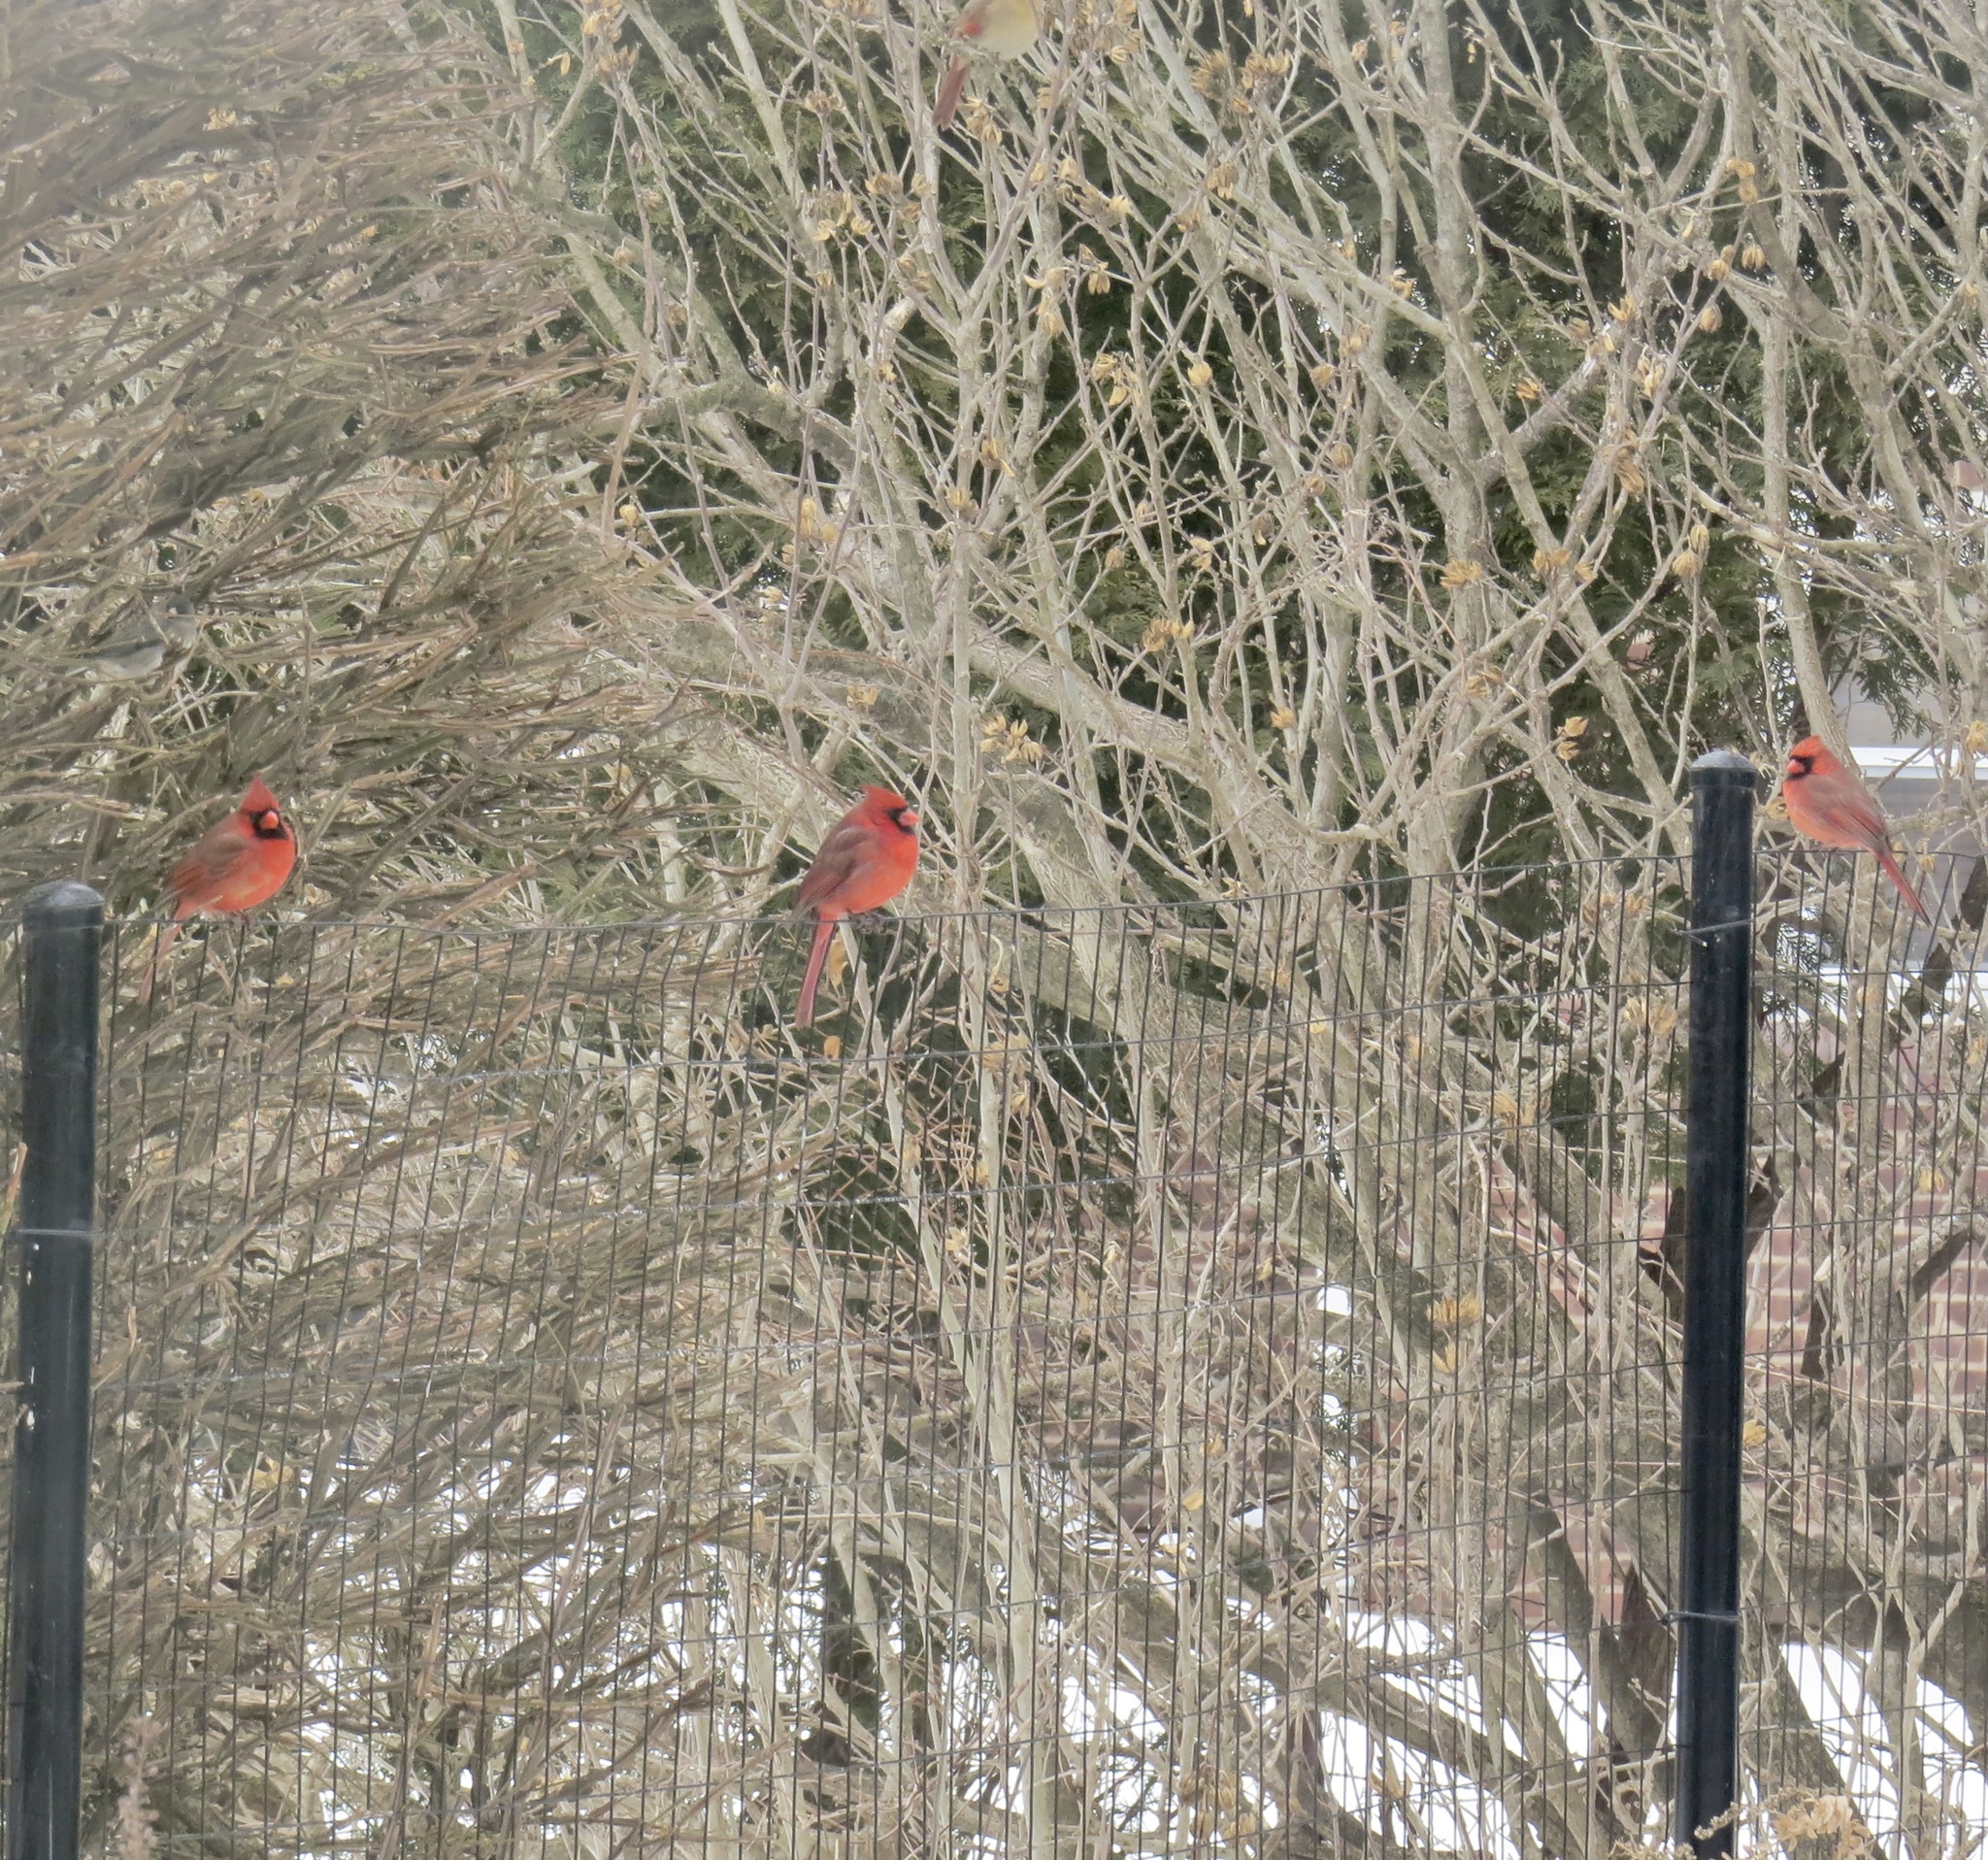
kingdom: Animalia
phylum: Chordata
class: Aves
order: Passeriformes
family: Cardinalidae
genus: Cardinalis
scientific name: Cardinalis cardinalis
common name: Northern cardinal
